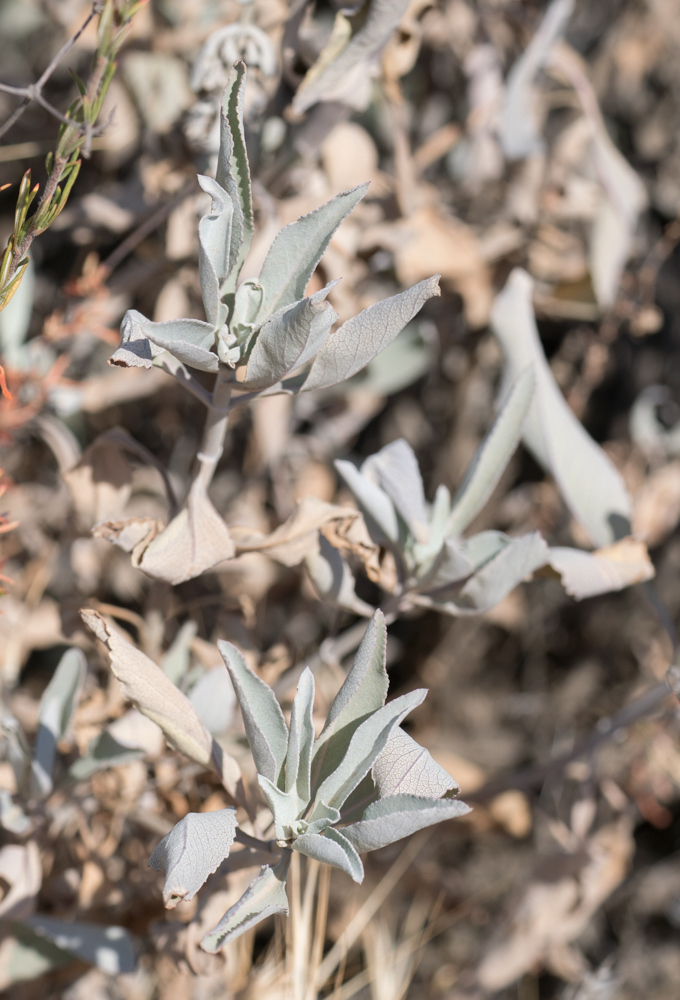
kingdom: Plantae
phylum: Tracheophyta
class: Magnoliopsida
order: Lamiales
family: Lamiaceae
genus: Salvia
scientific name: Salvia apiana
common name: White sage
